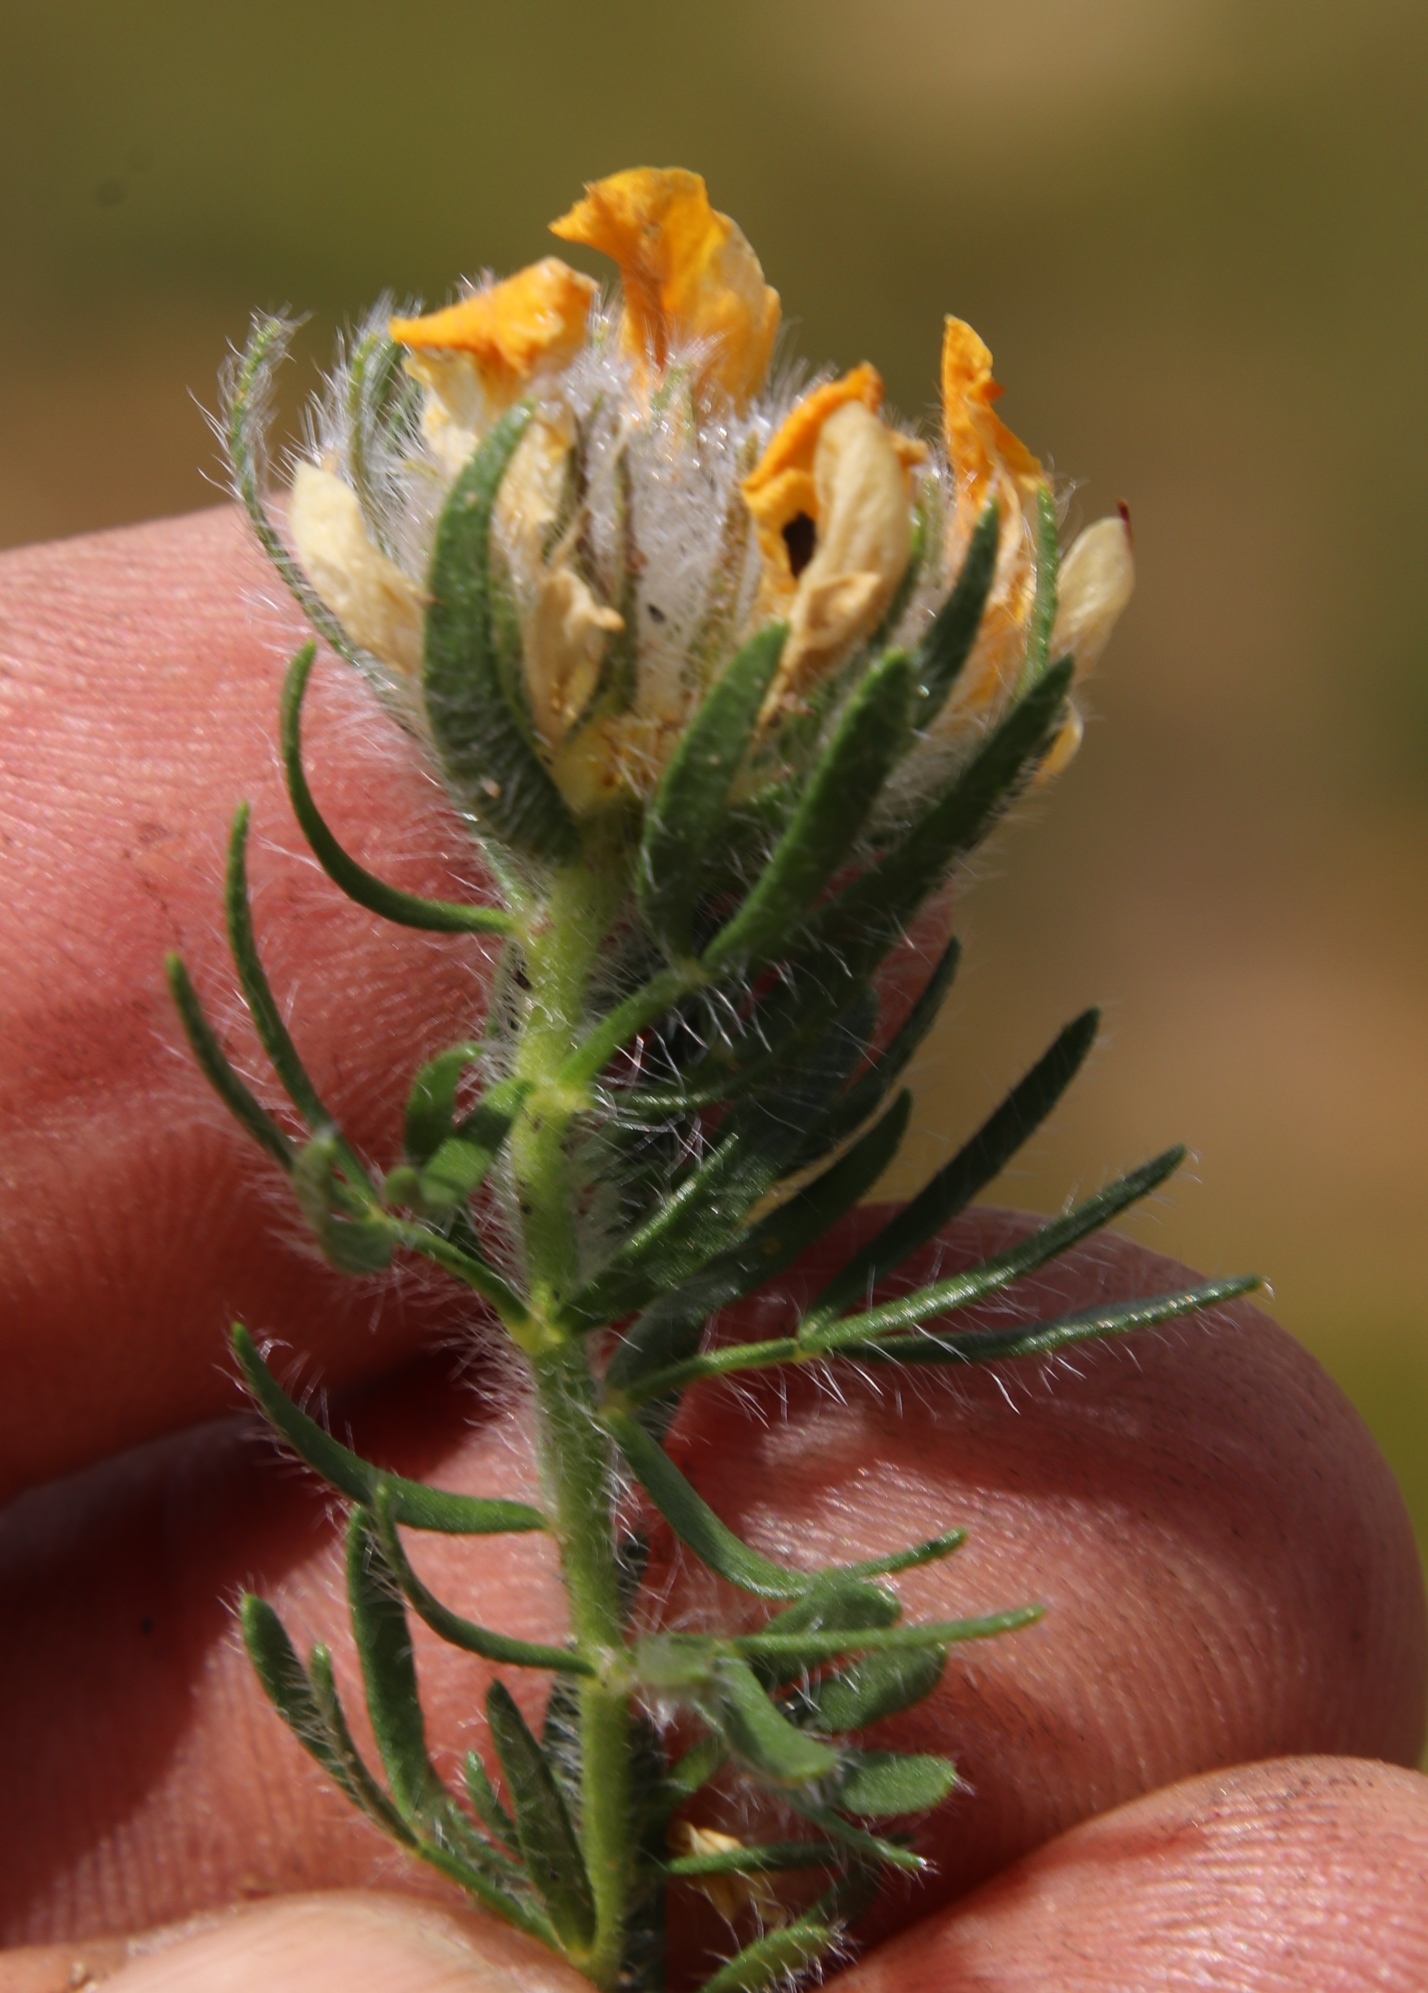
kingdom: Plantae
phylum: Tracheophyta
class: Magnoliopsida
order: Fabales
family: Fabaceae
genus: Lotononis
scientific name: Lotononis involucrata
